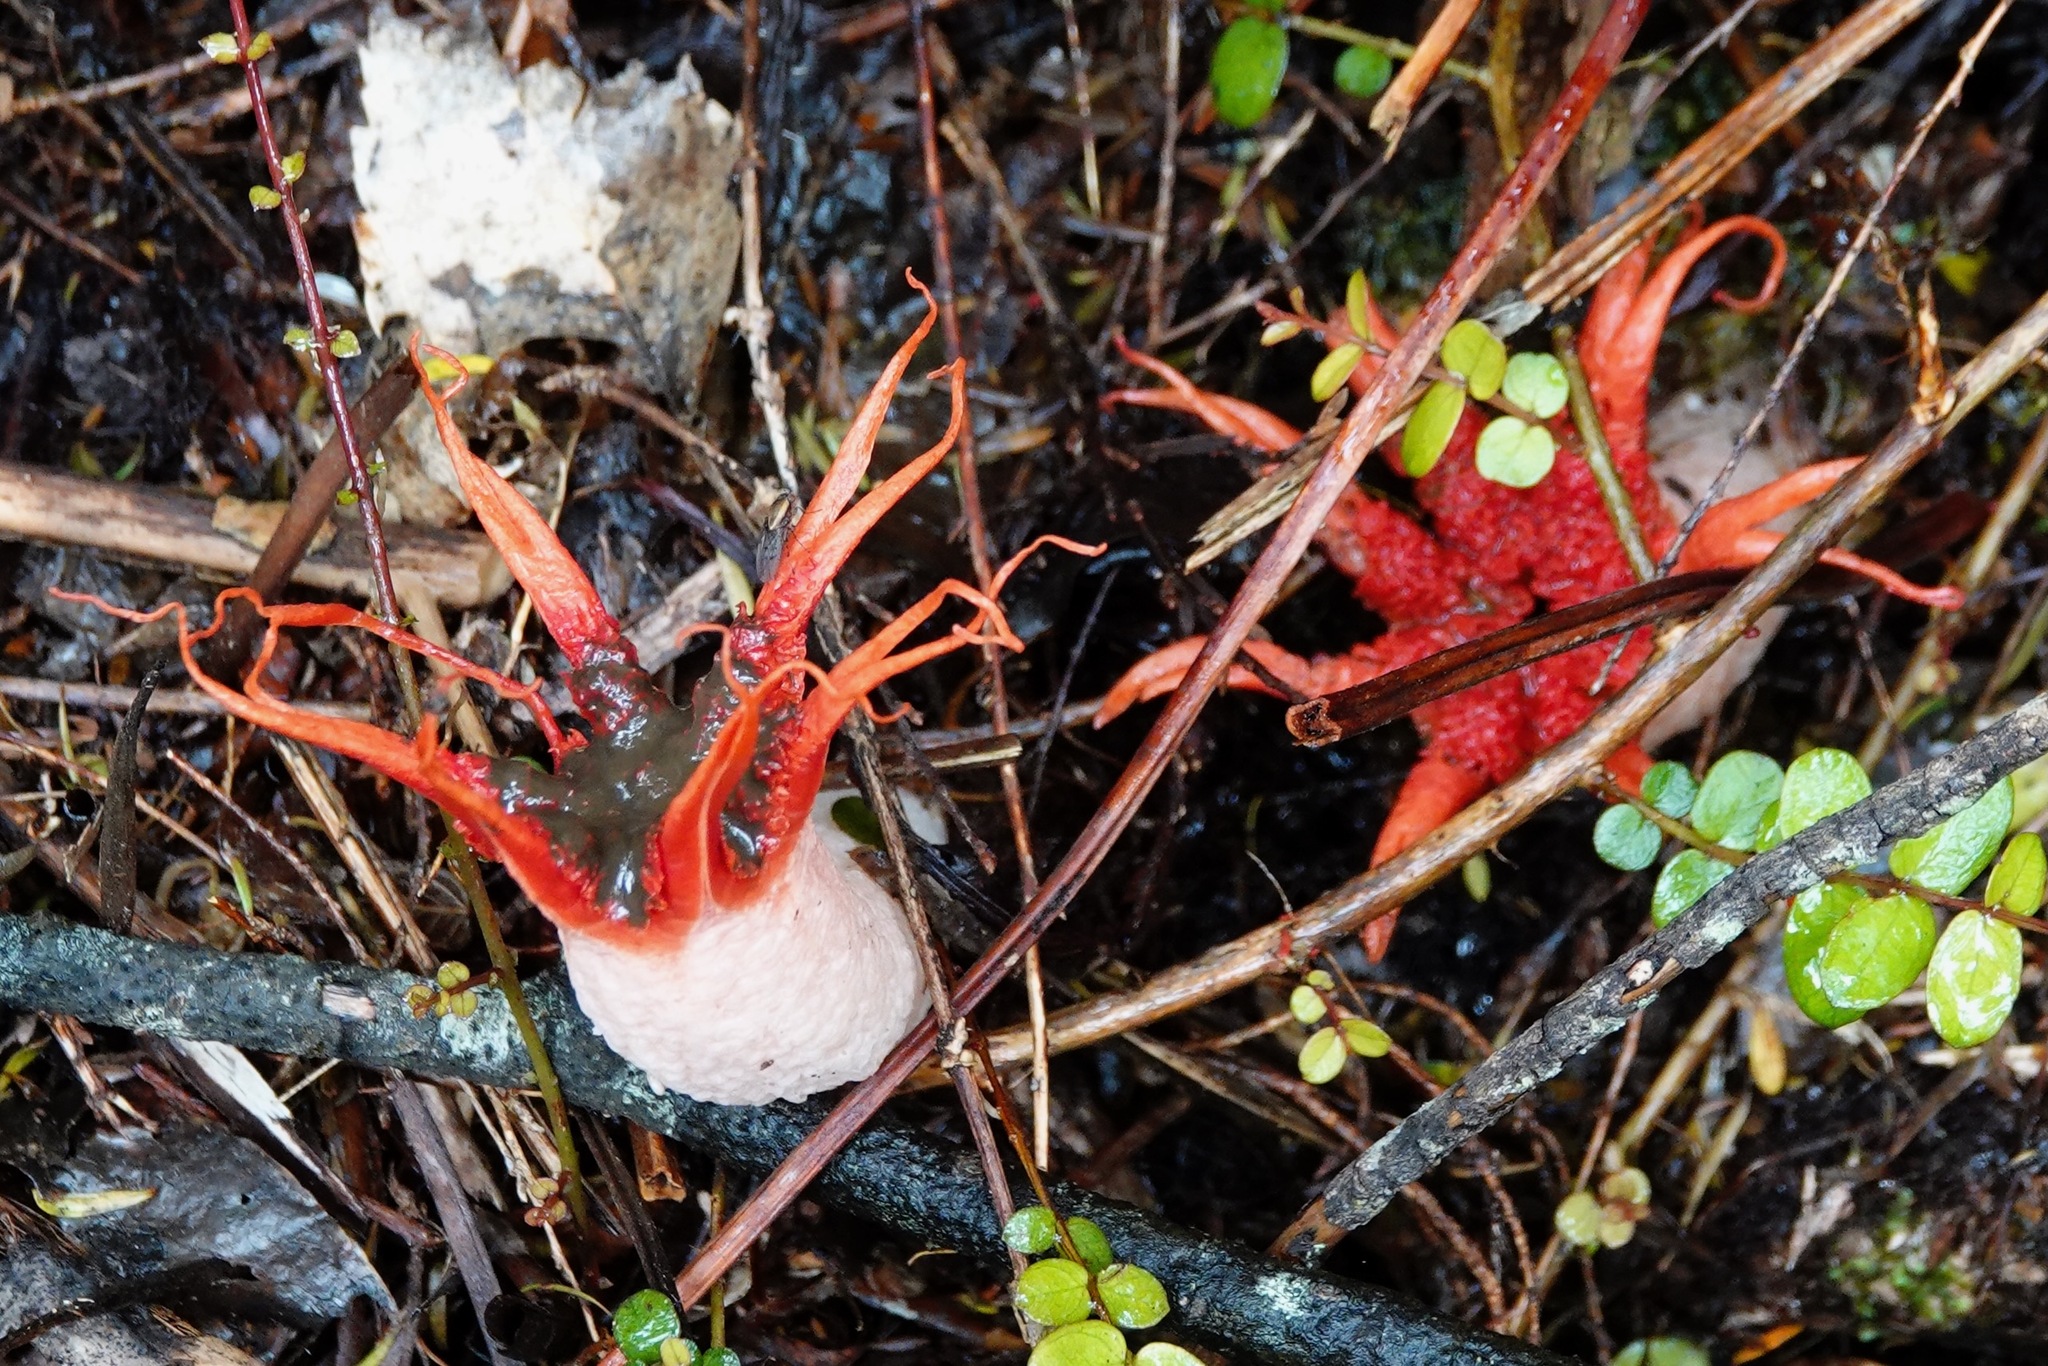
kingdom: Fungi
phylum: Basidiomycota
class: Agaricomycetes
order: Phallales
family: Phallaceae
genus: Aseroe
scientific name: Aseroe rubra
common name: Starfish fungus
